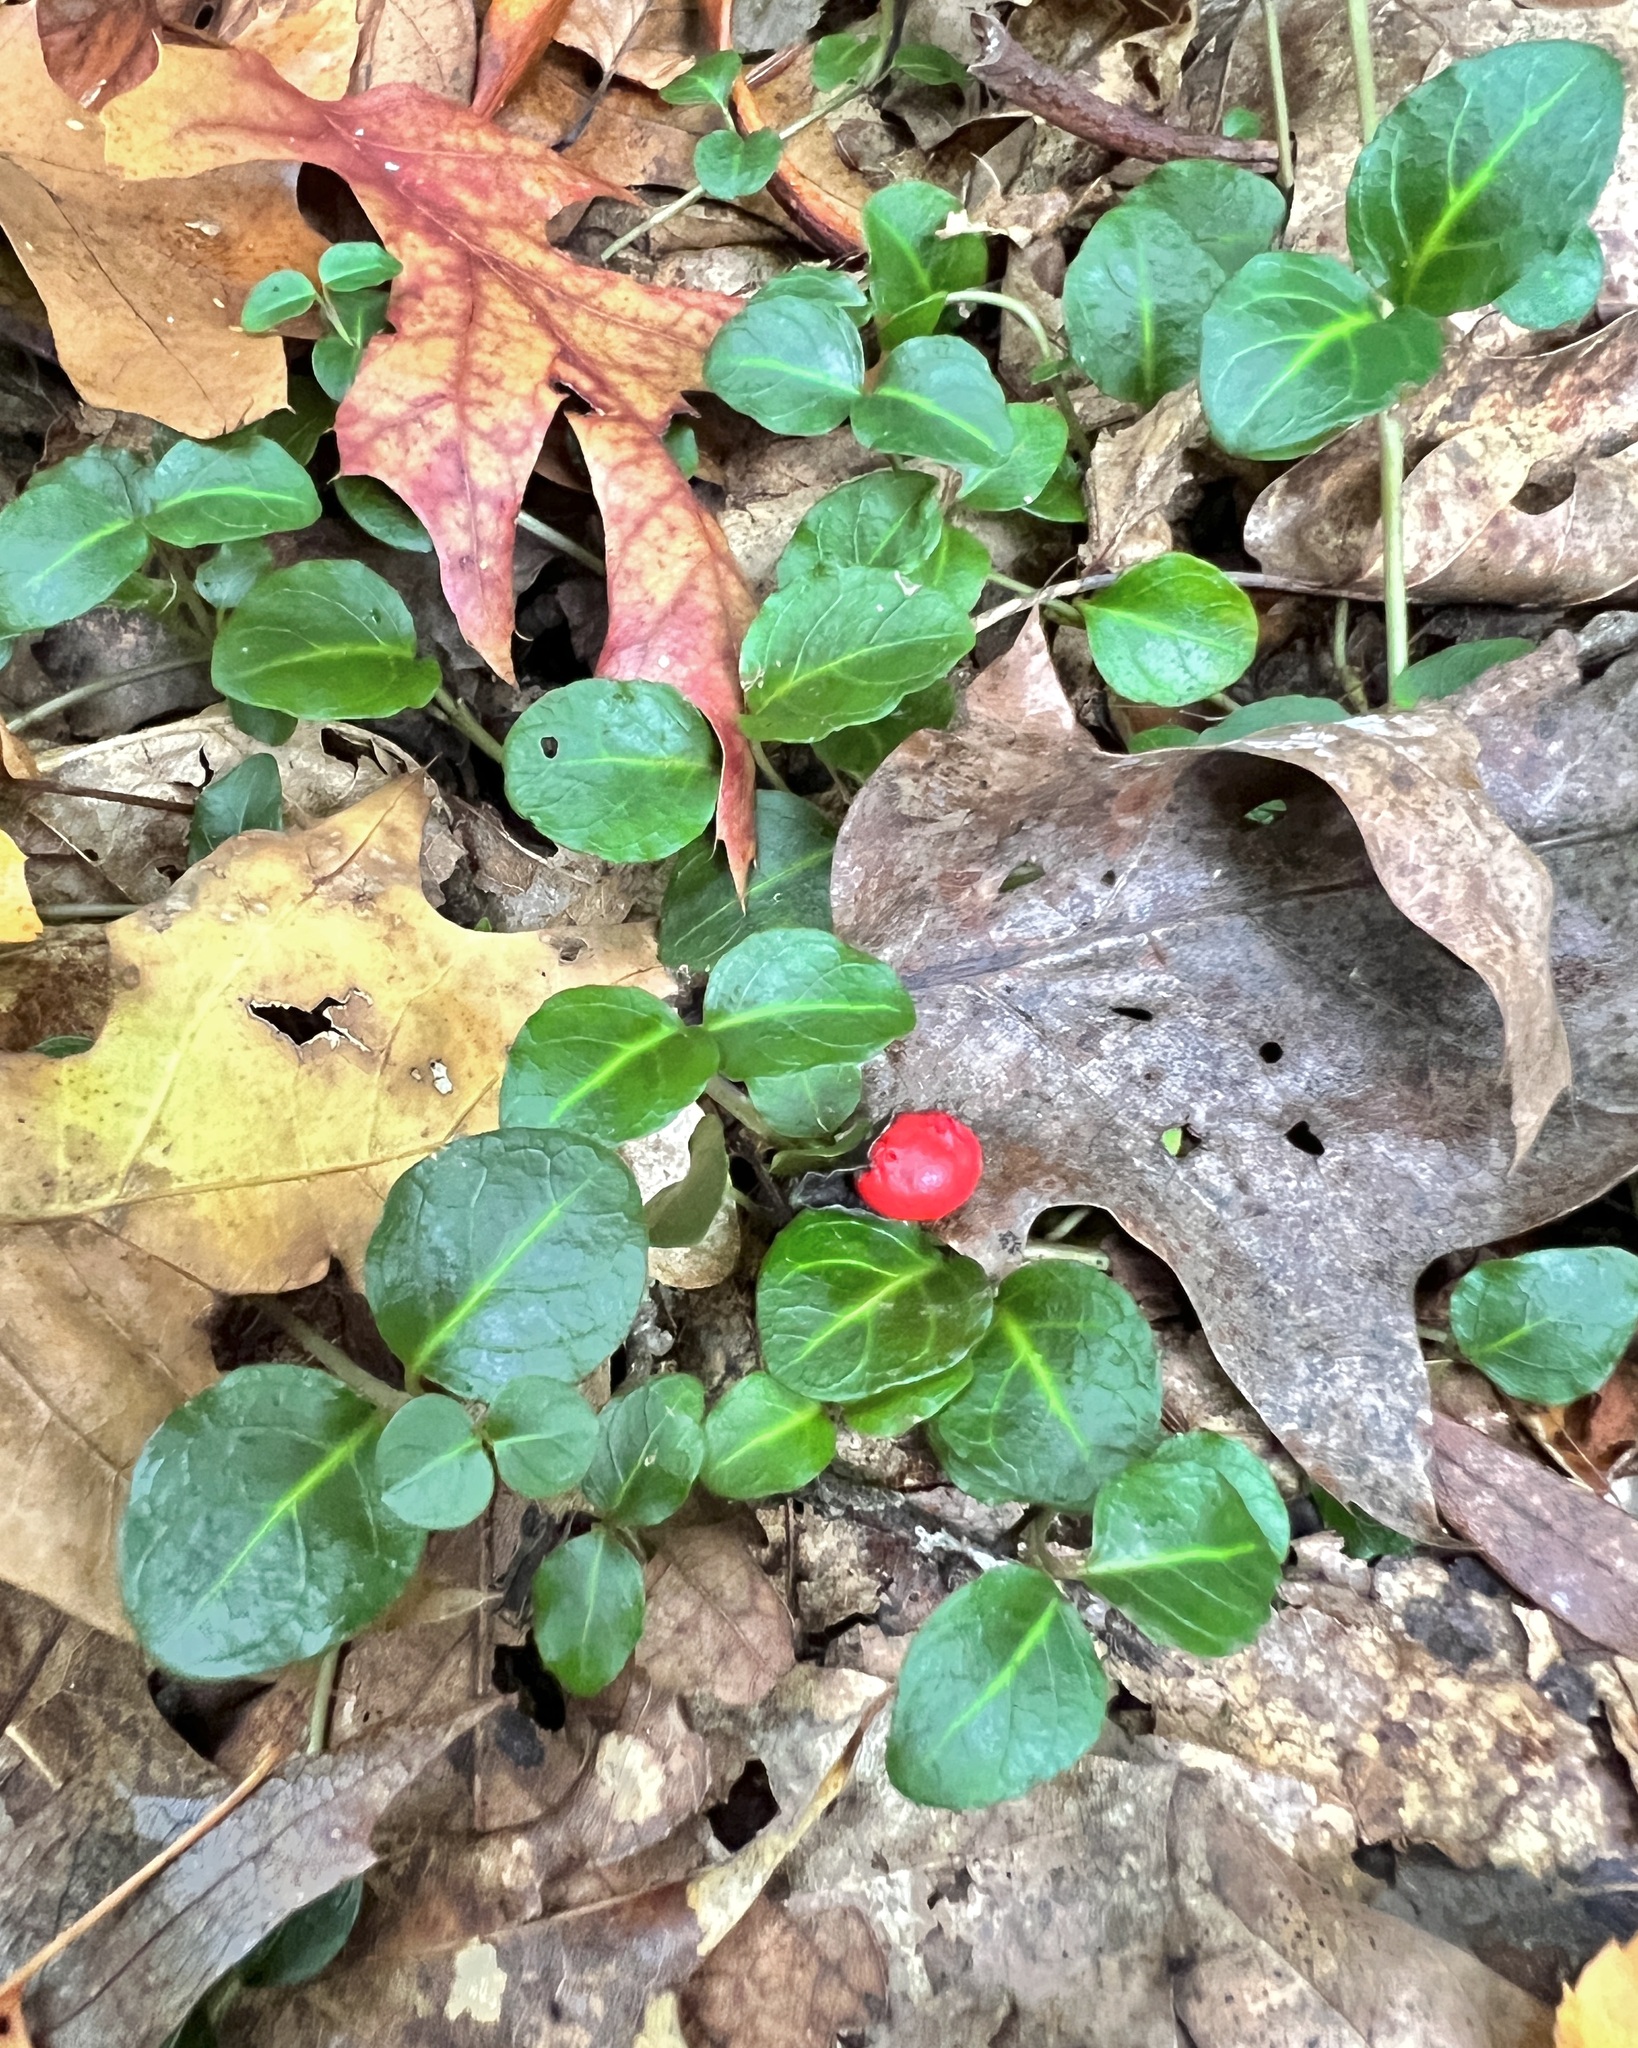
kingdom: Plantae
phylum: Tracheophyta
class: Magnoliopsida
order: Gentianales
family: Rubiaceae
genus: Mitchella
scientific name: Mitchella repens
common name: Partridge-berry
